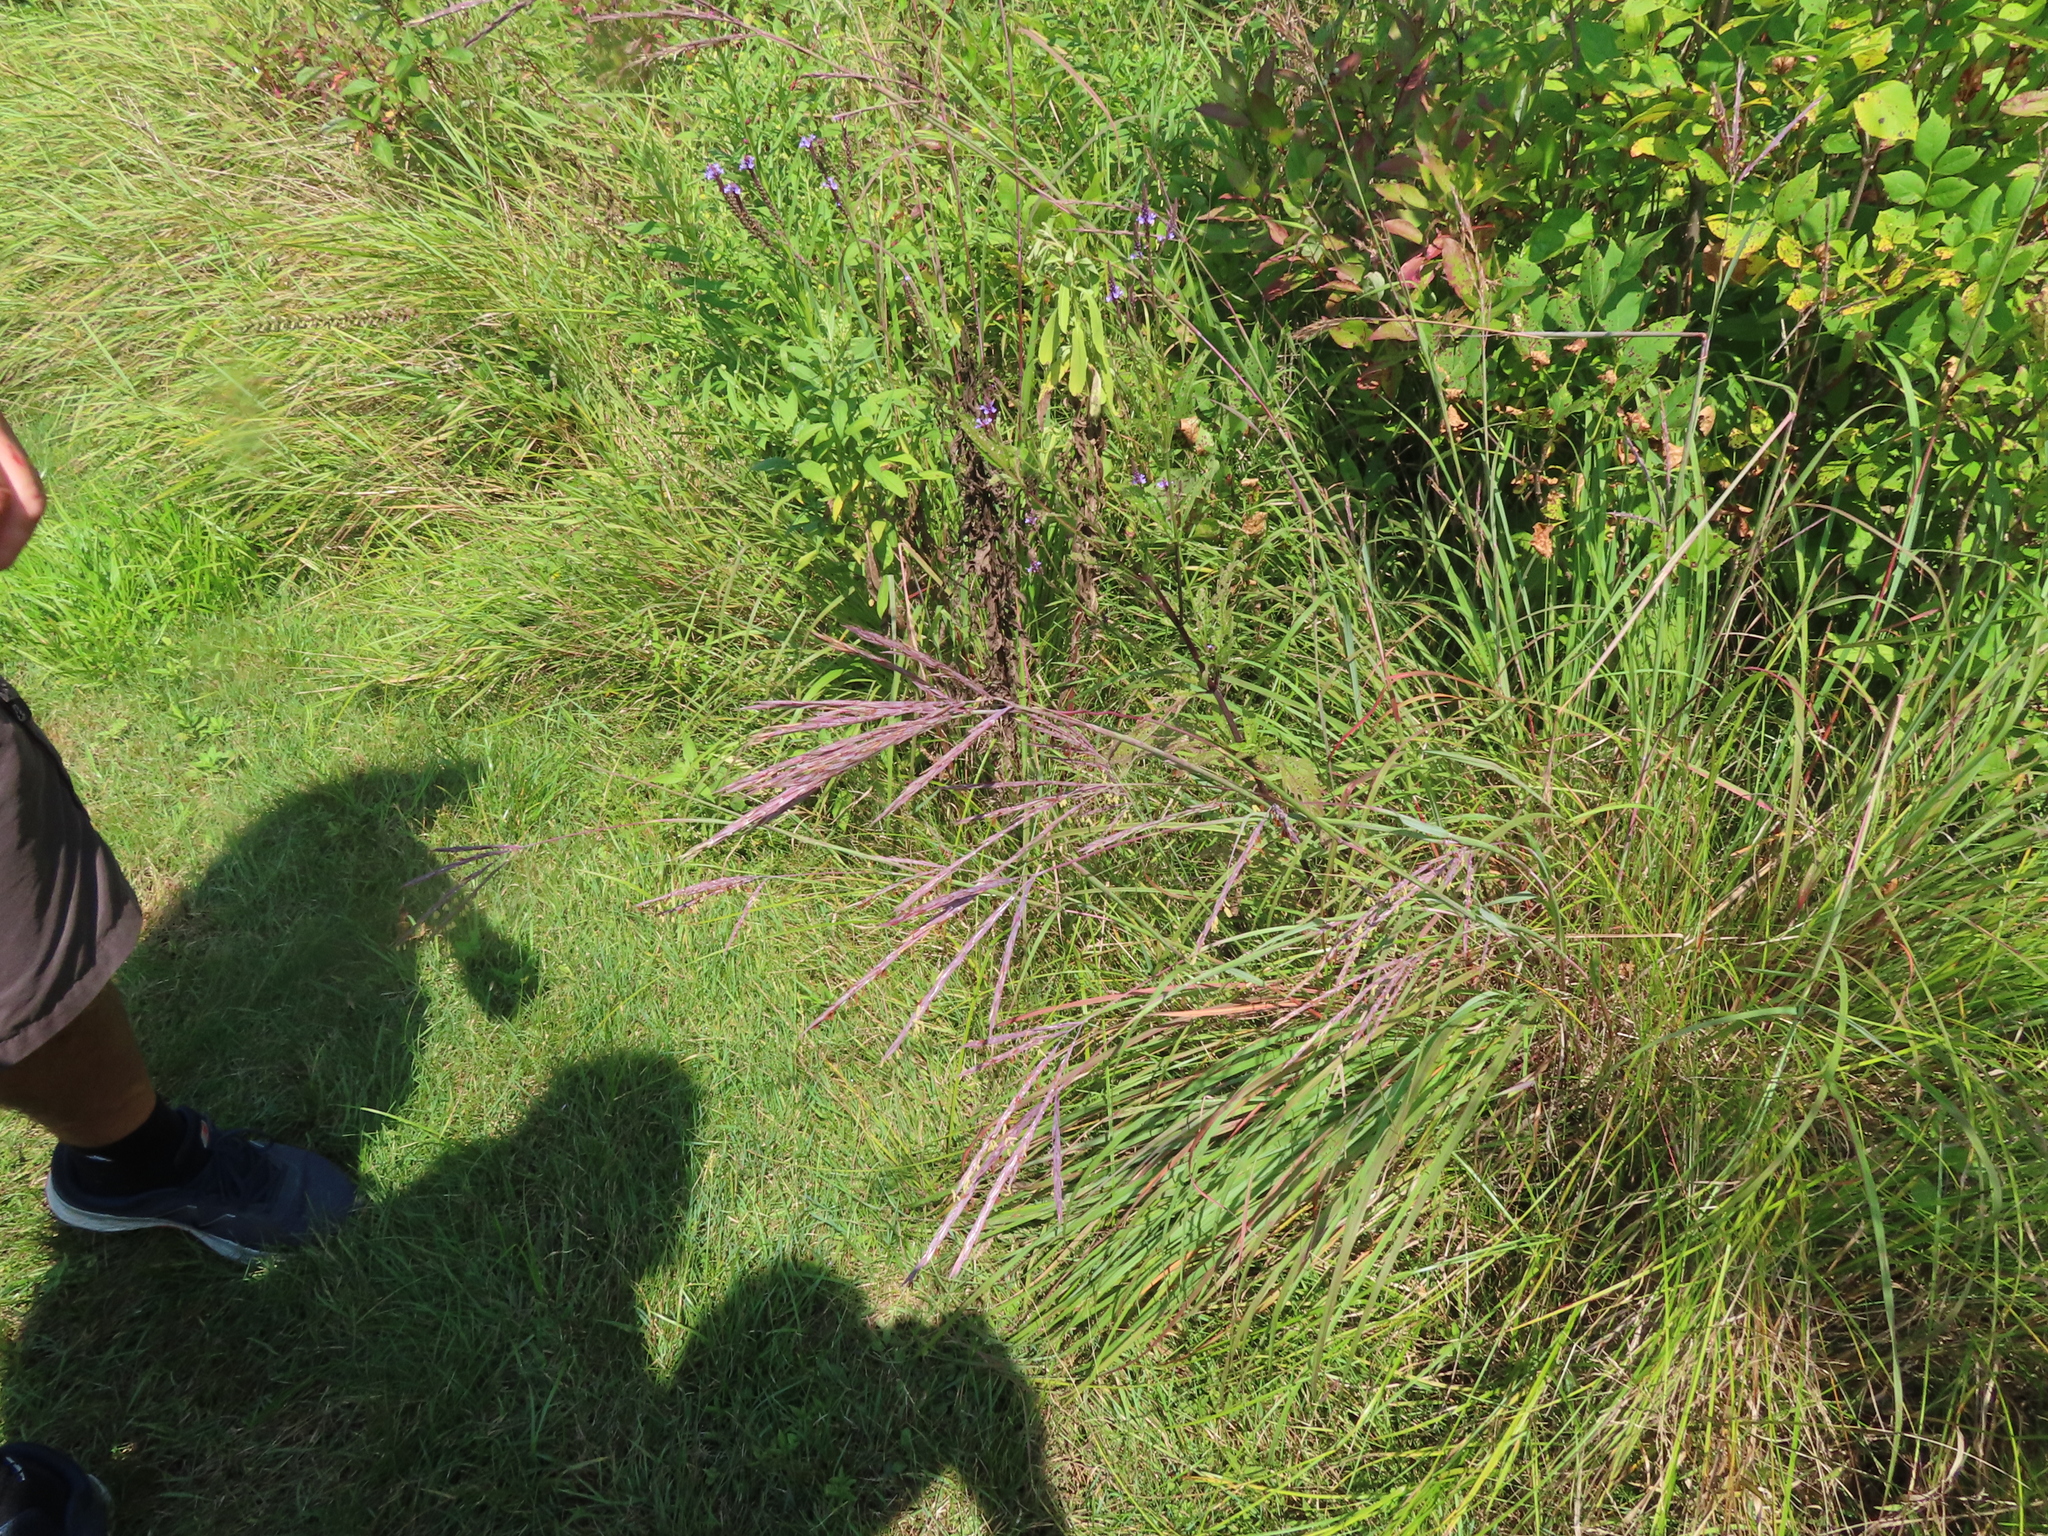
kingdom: Plantae
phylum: Tracheophyta
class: Liliopsida
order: Poales
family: Poaceae
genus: Andropogon
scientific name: Andropogon gerardi
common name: Big bluestem
